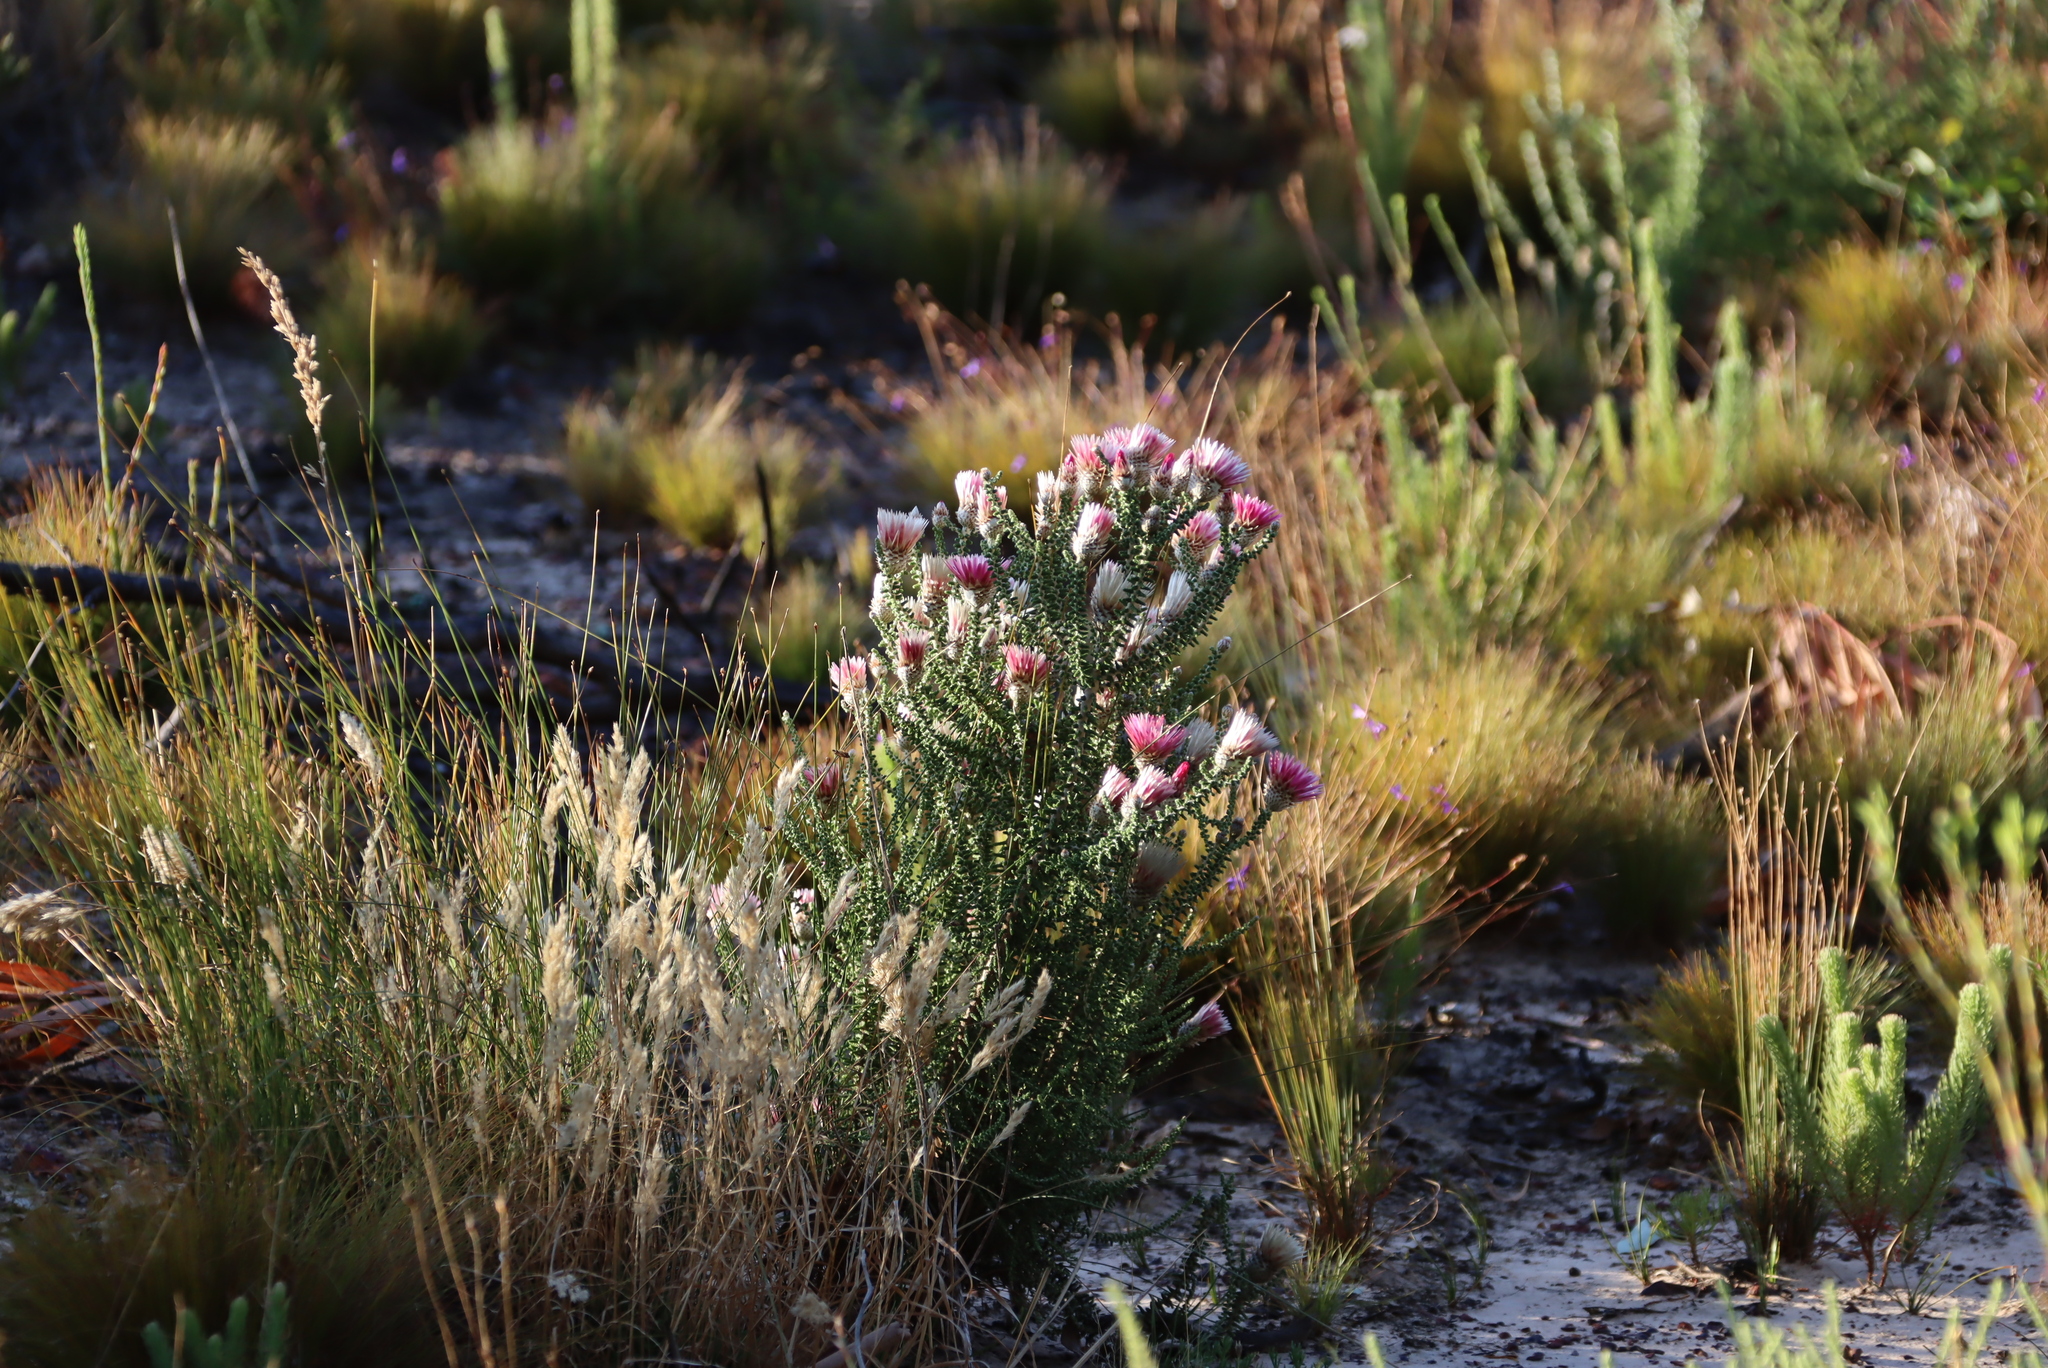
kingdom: Plantae
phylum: Tracheophyta
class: Magnoliopsida
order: Asterales
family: Asteraceae
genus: Phaenocoma
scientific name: Phaenocoma prolifera
